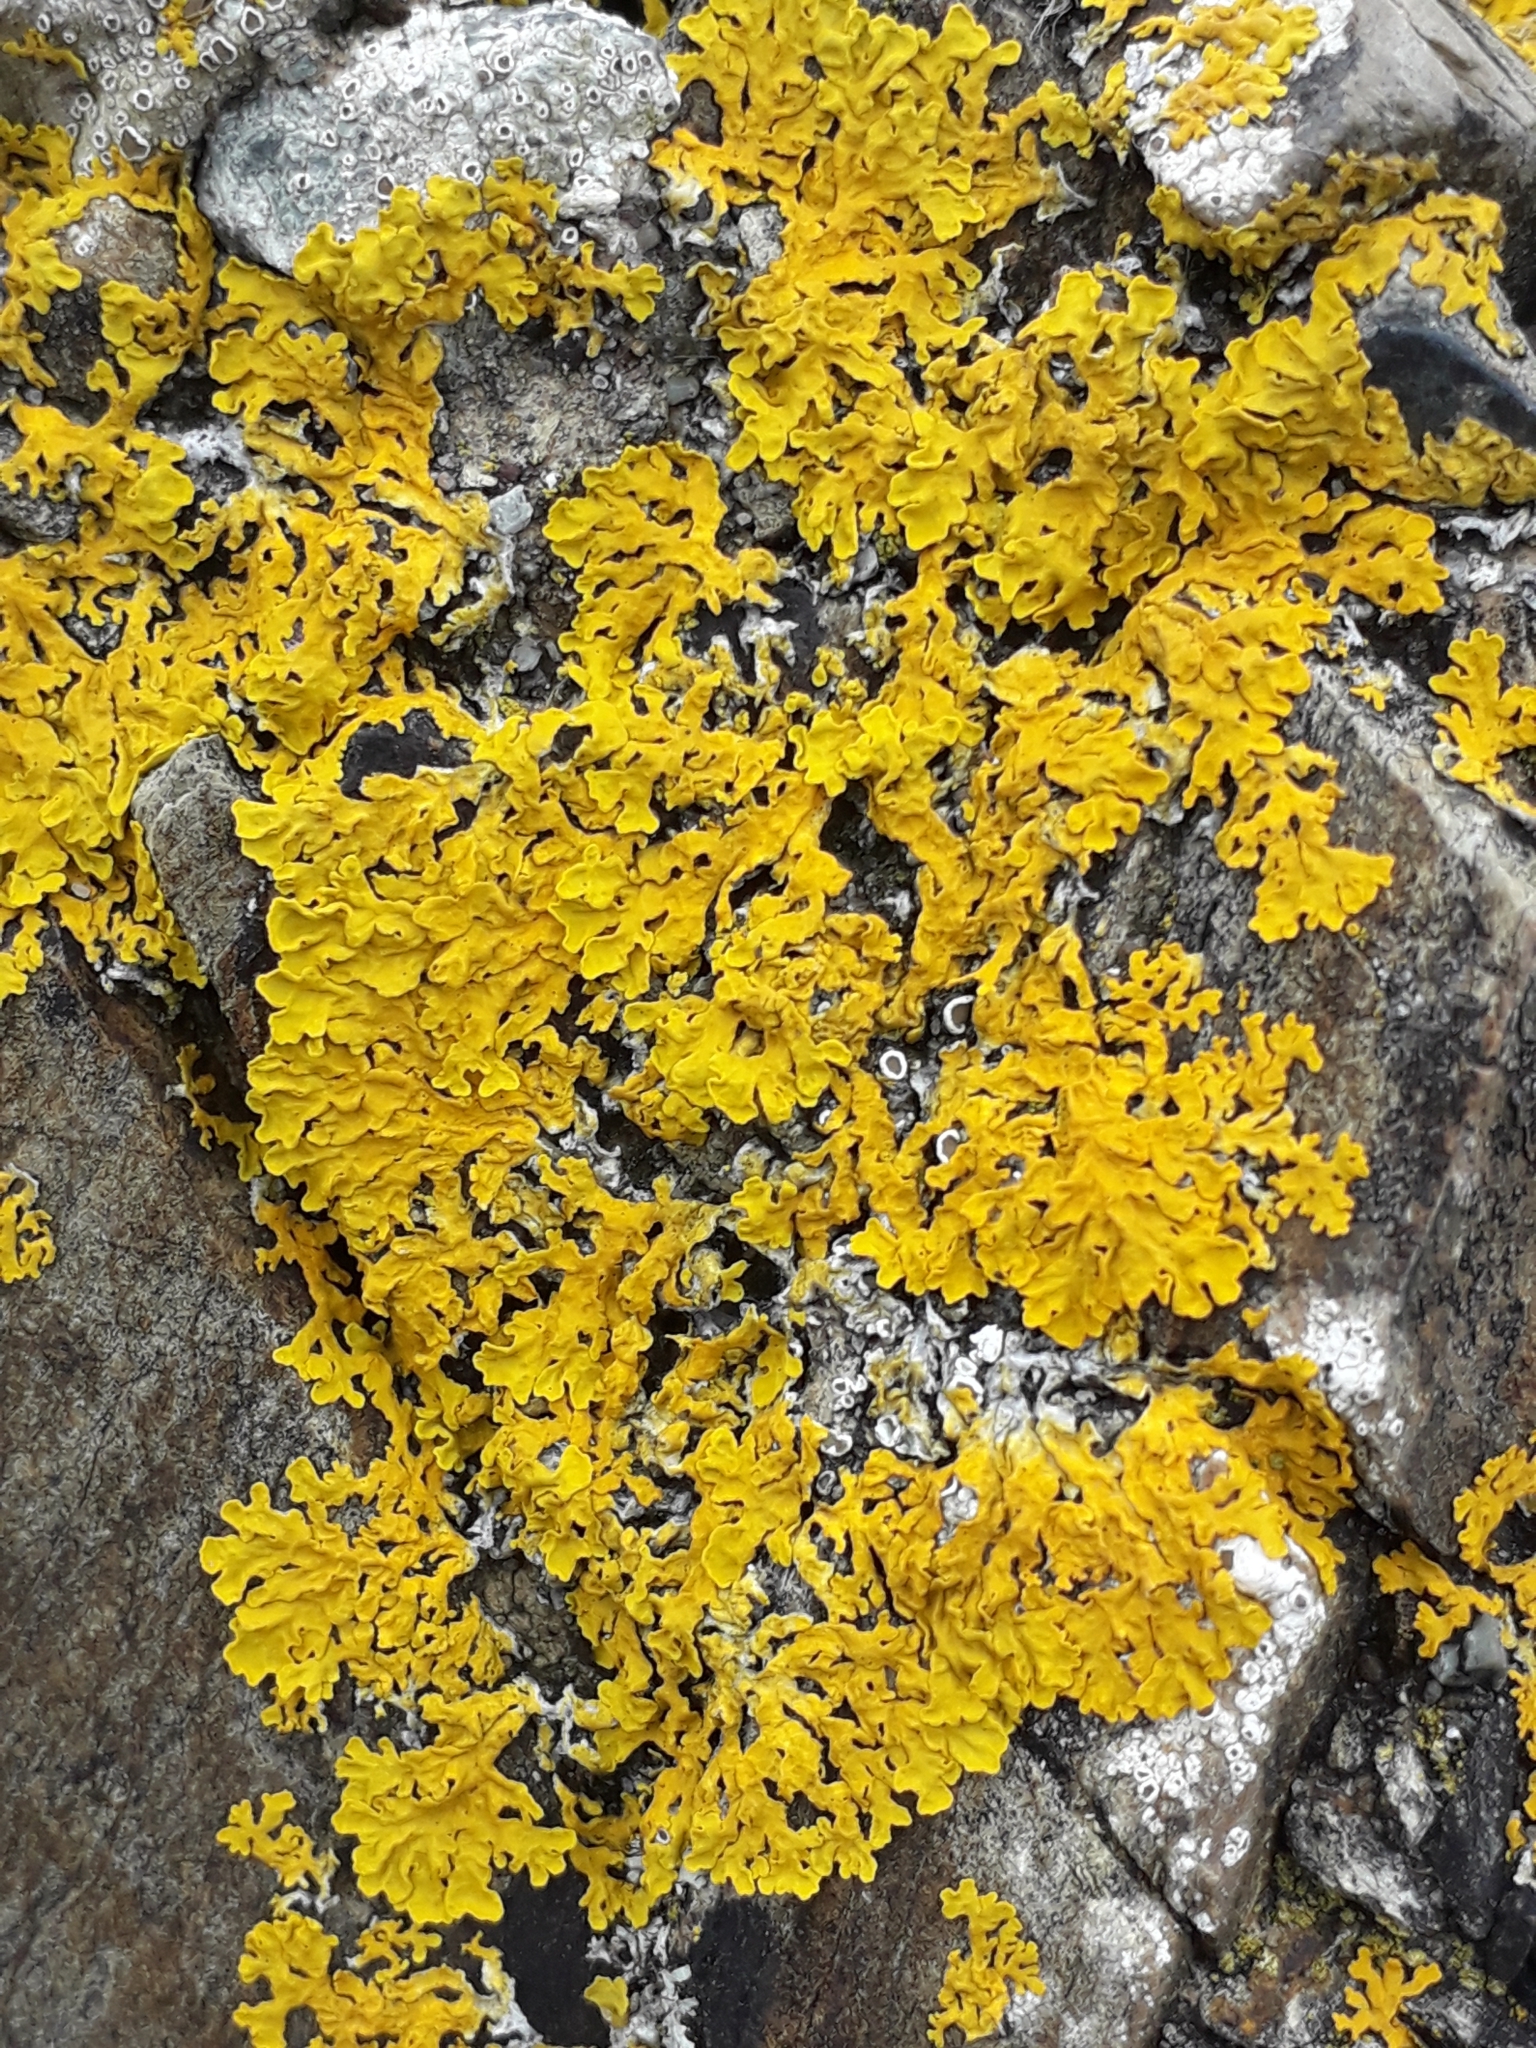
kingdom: Fungi
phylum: Ascomycota
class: Lecanoromycetes
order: Teloschistales
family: Teloschistaceae
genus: Xanthoria
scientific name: Xanthoria aureola
